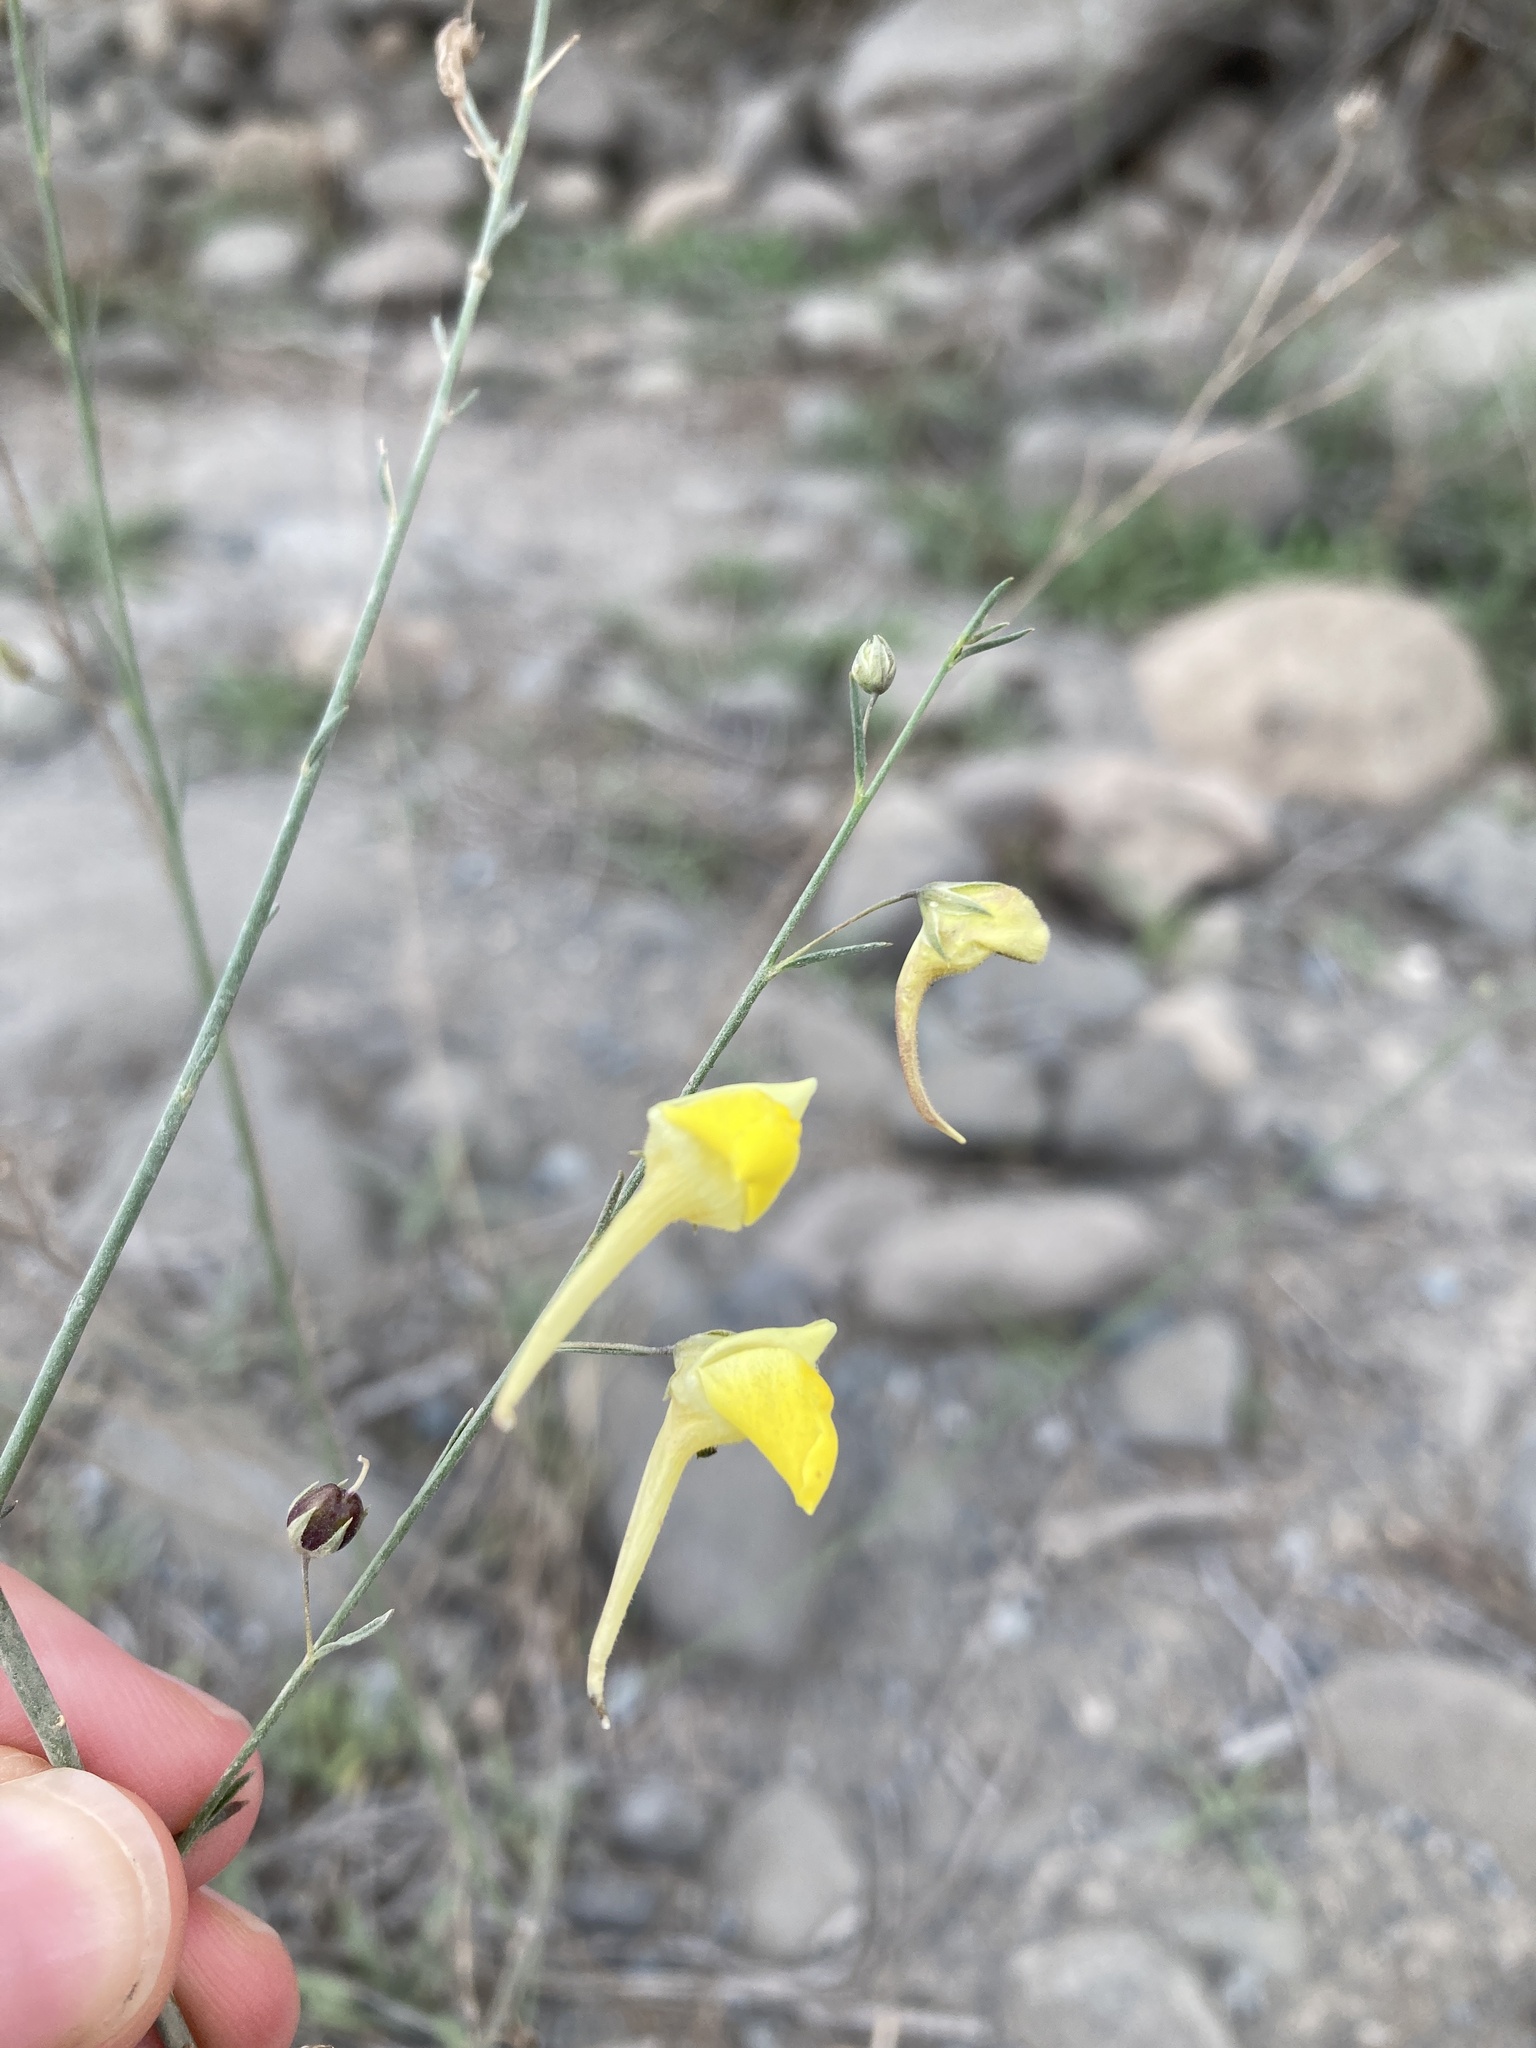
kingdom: Plantae
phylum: Tracheophyta
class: Magnoliopsida
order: Lamiales
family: Plantaginaceae
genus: Nanorrhinum
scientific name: Nanorrhinum scoparium
